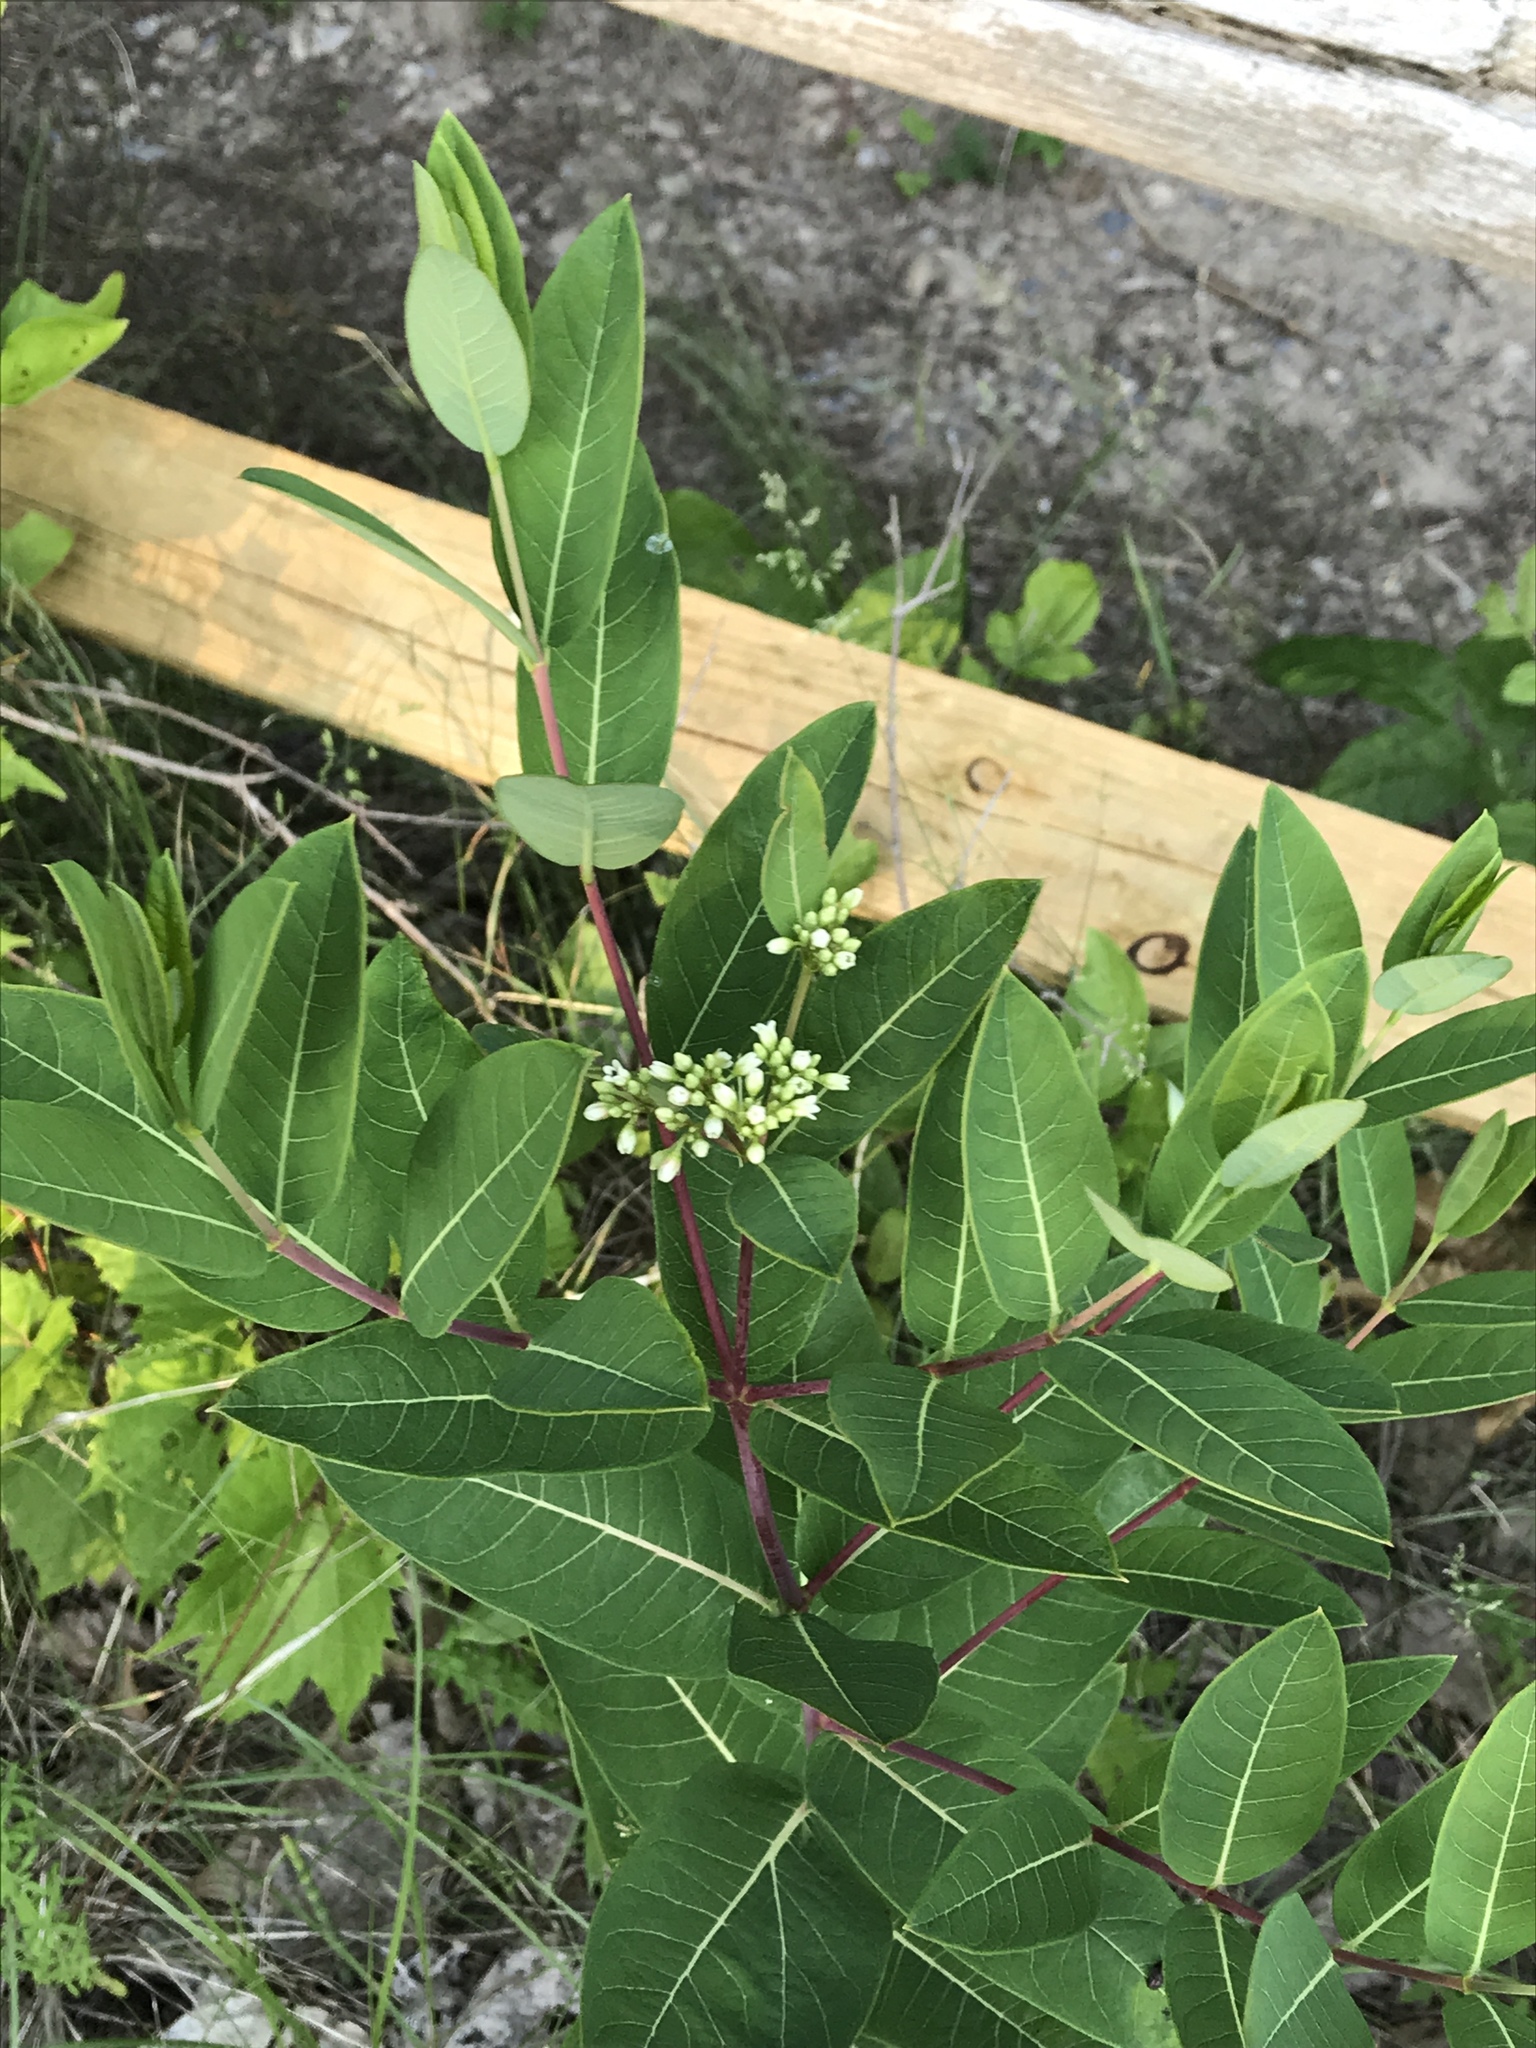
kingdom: Plantae
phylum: Tracheophyta
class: Magnoliopsida
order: Gentianales
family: Apocynaceae
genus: Apocynum
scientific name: Apocynum cannabinum
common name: Hemp dogbane
